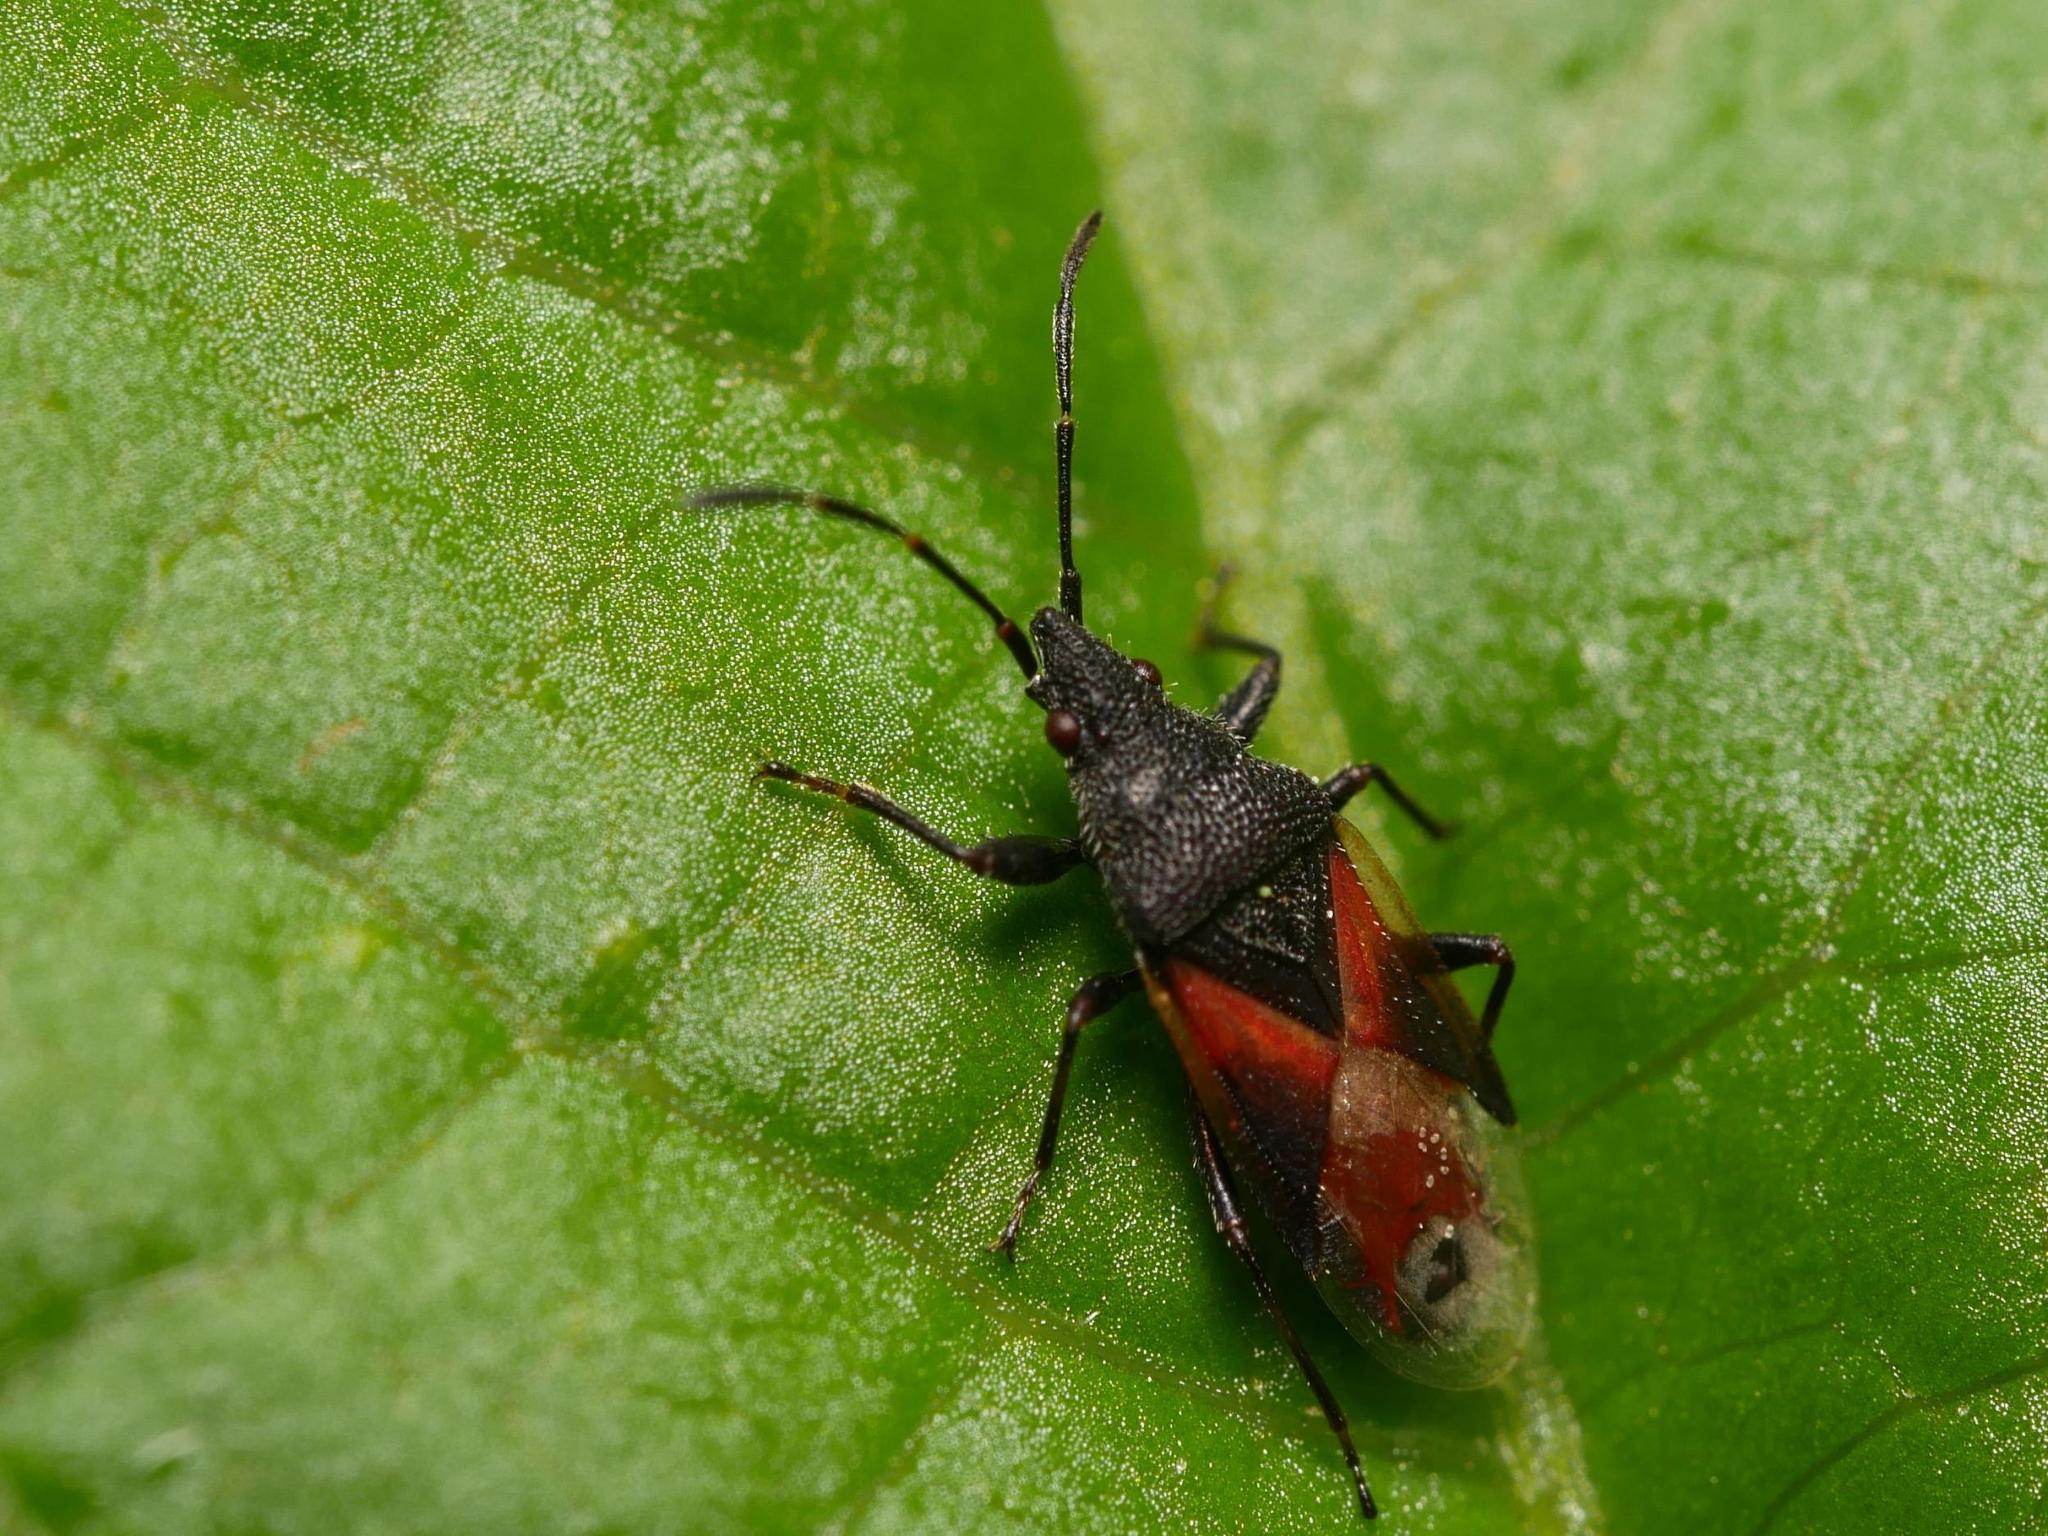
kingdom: Animalia
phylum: Arthropoda
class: Insecta
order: Hemiptera
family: Oxycarenidae
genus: Oxycarenus
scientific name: Oxycarenus lavaterae
